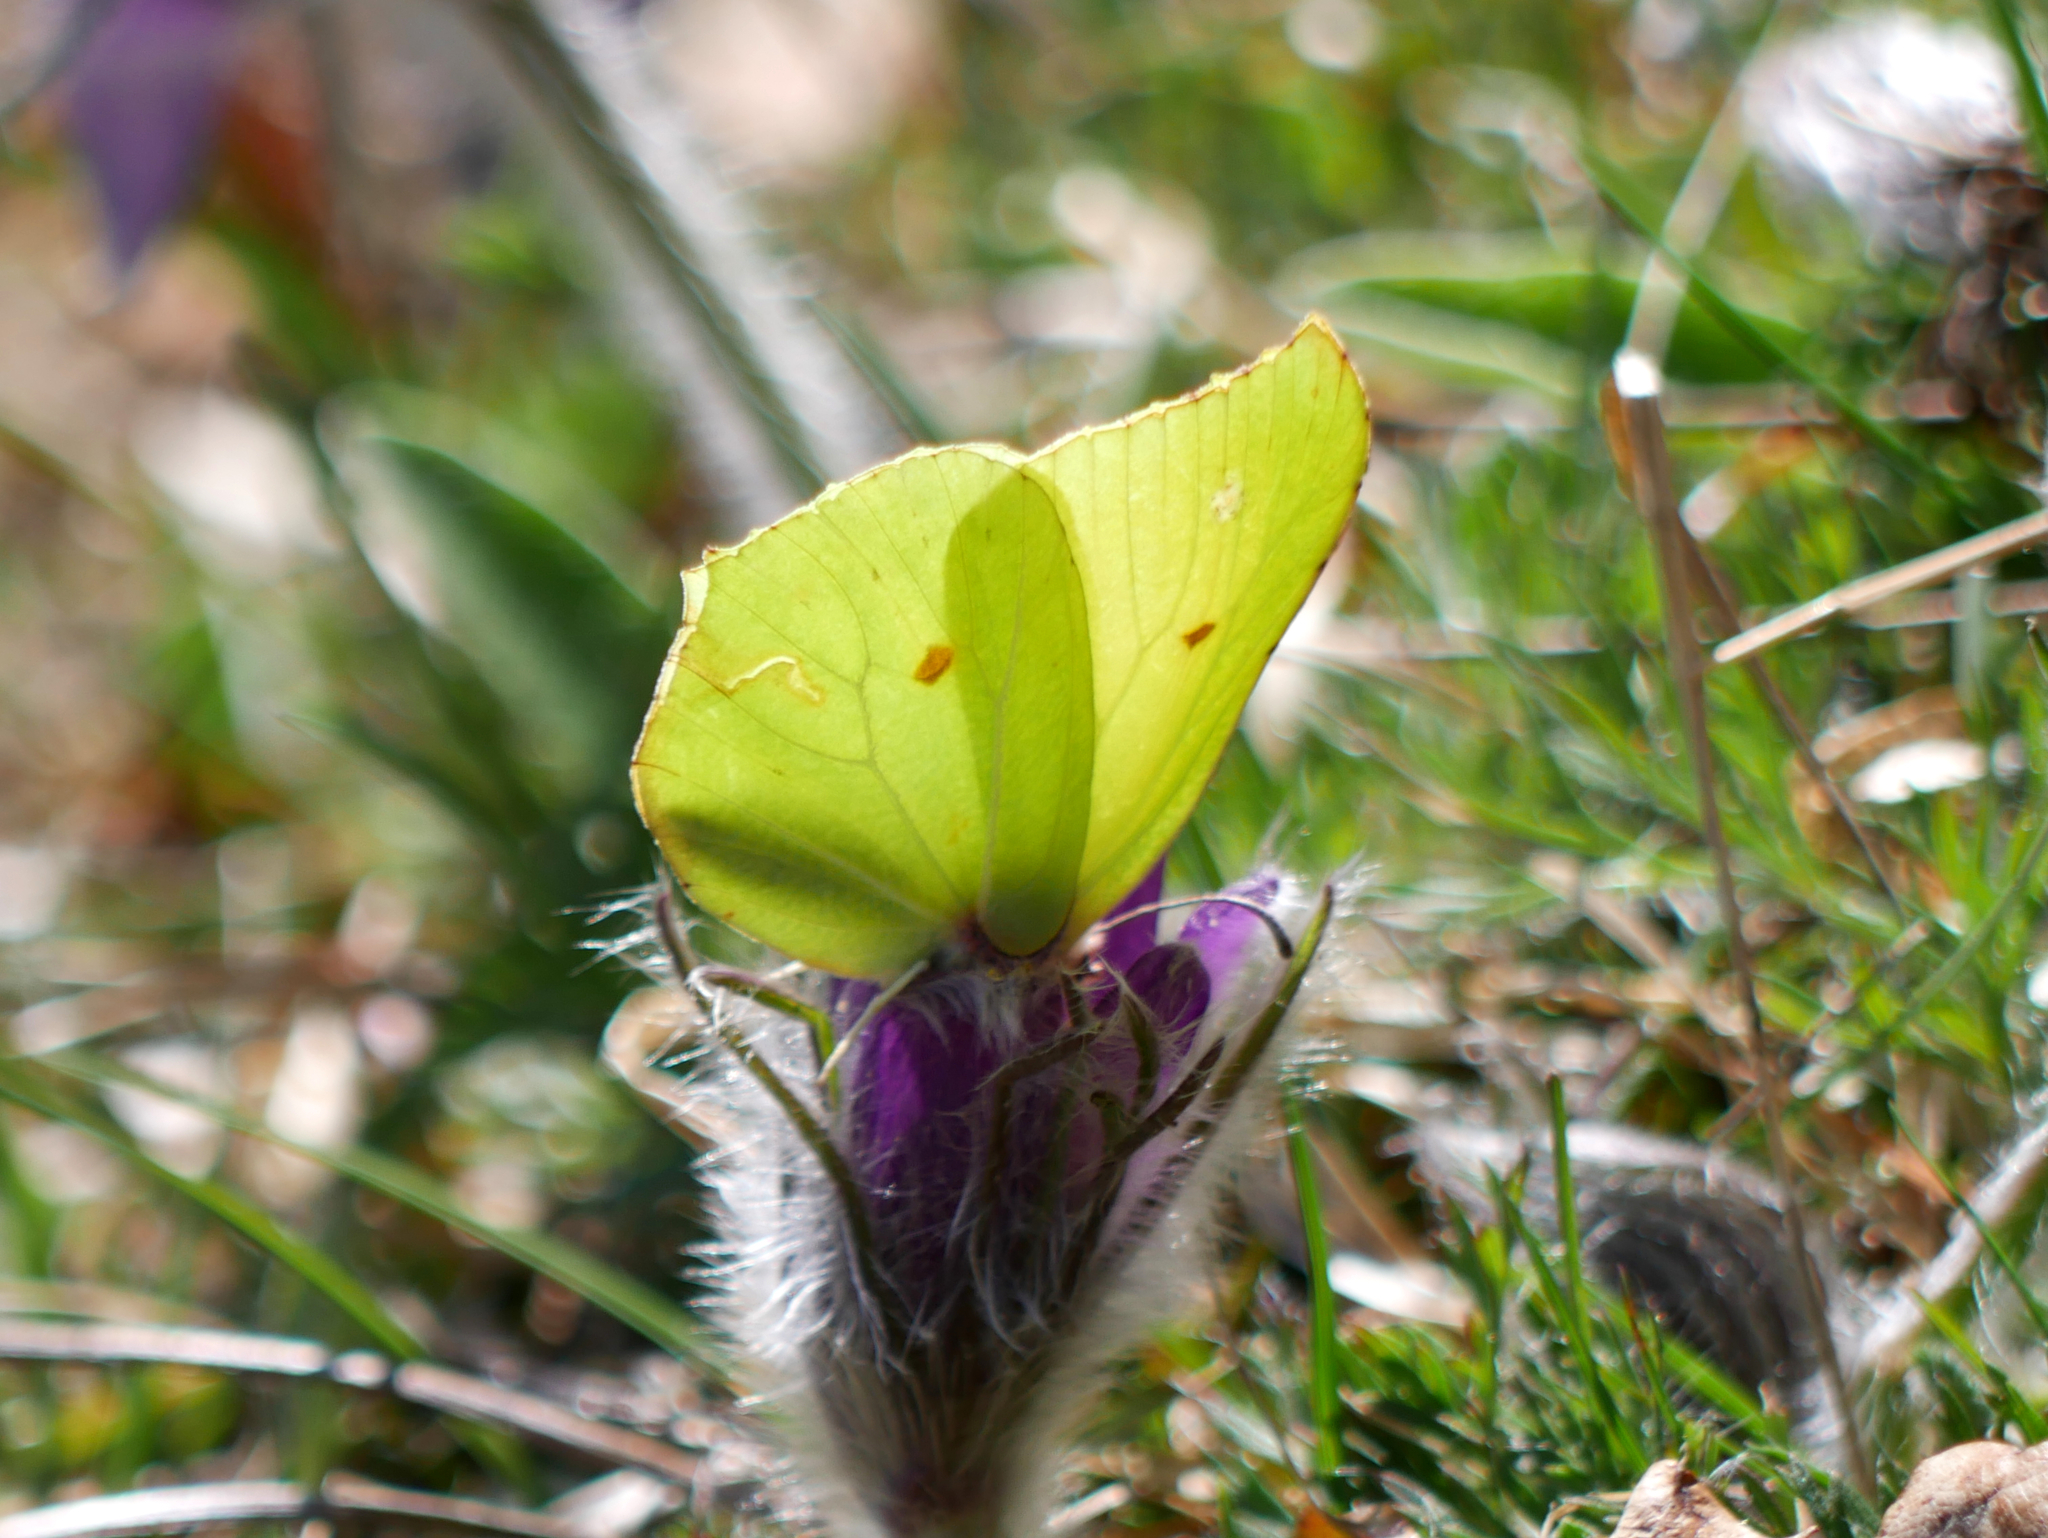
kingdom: Animalia
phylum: Arthropoda
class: Insecta
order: Lepidoptera
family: Pieridae
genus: Gonepteryx
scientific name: Gonepteryx rhamni
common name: Brimstone
